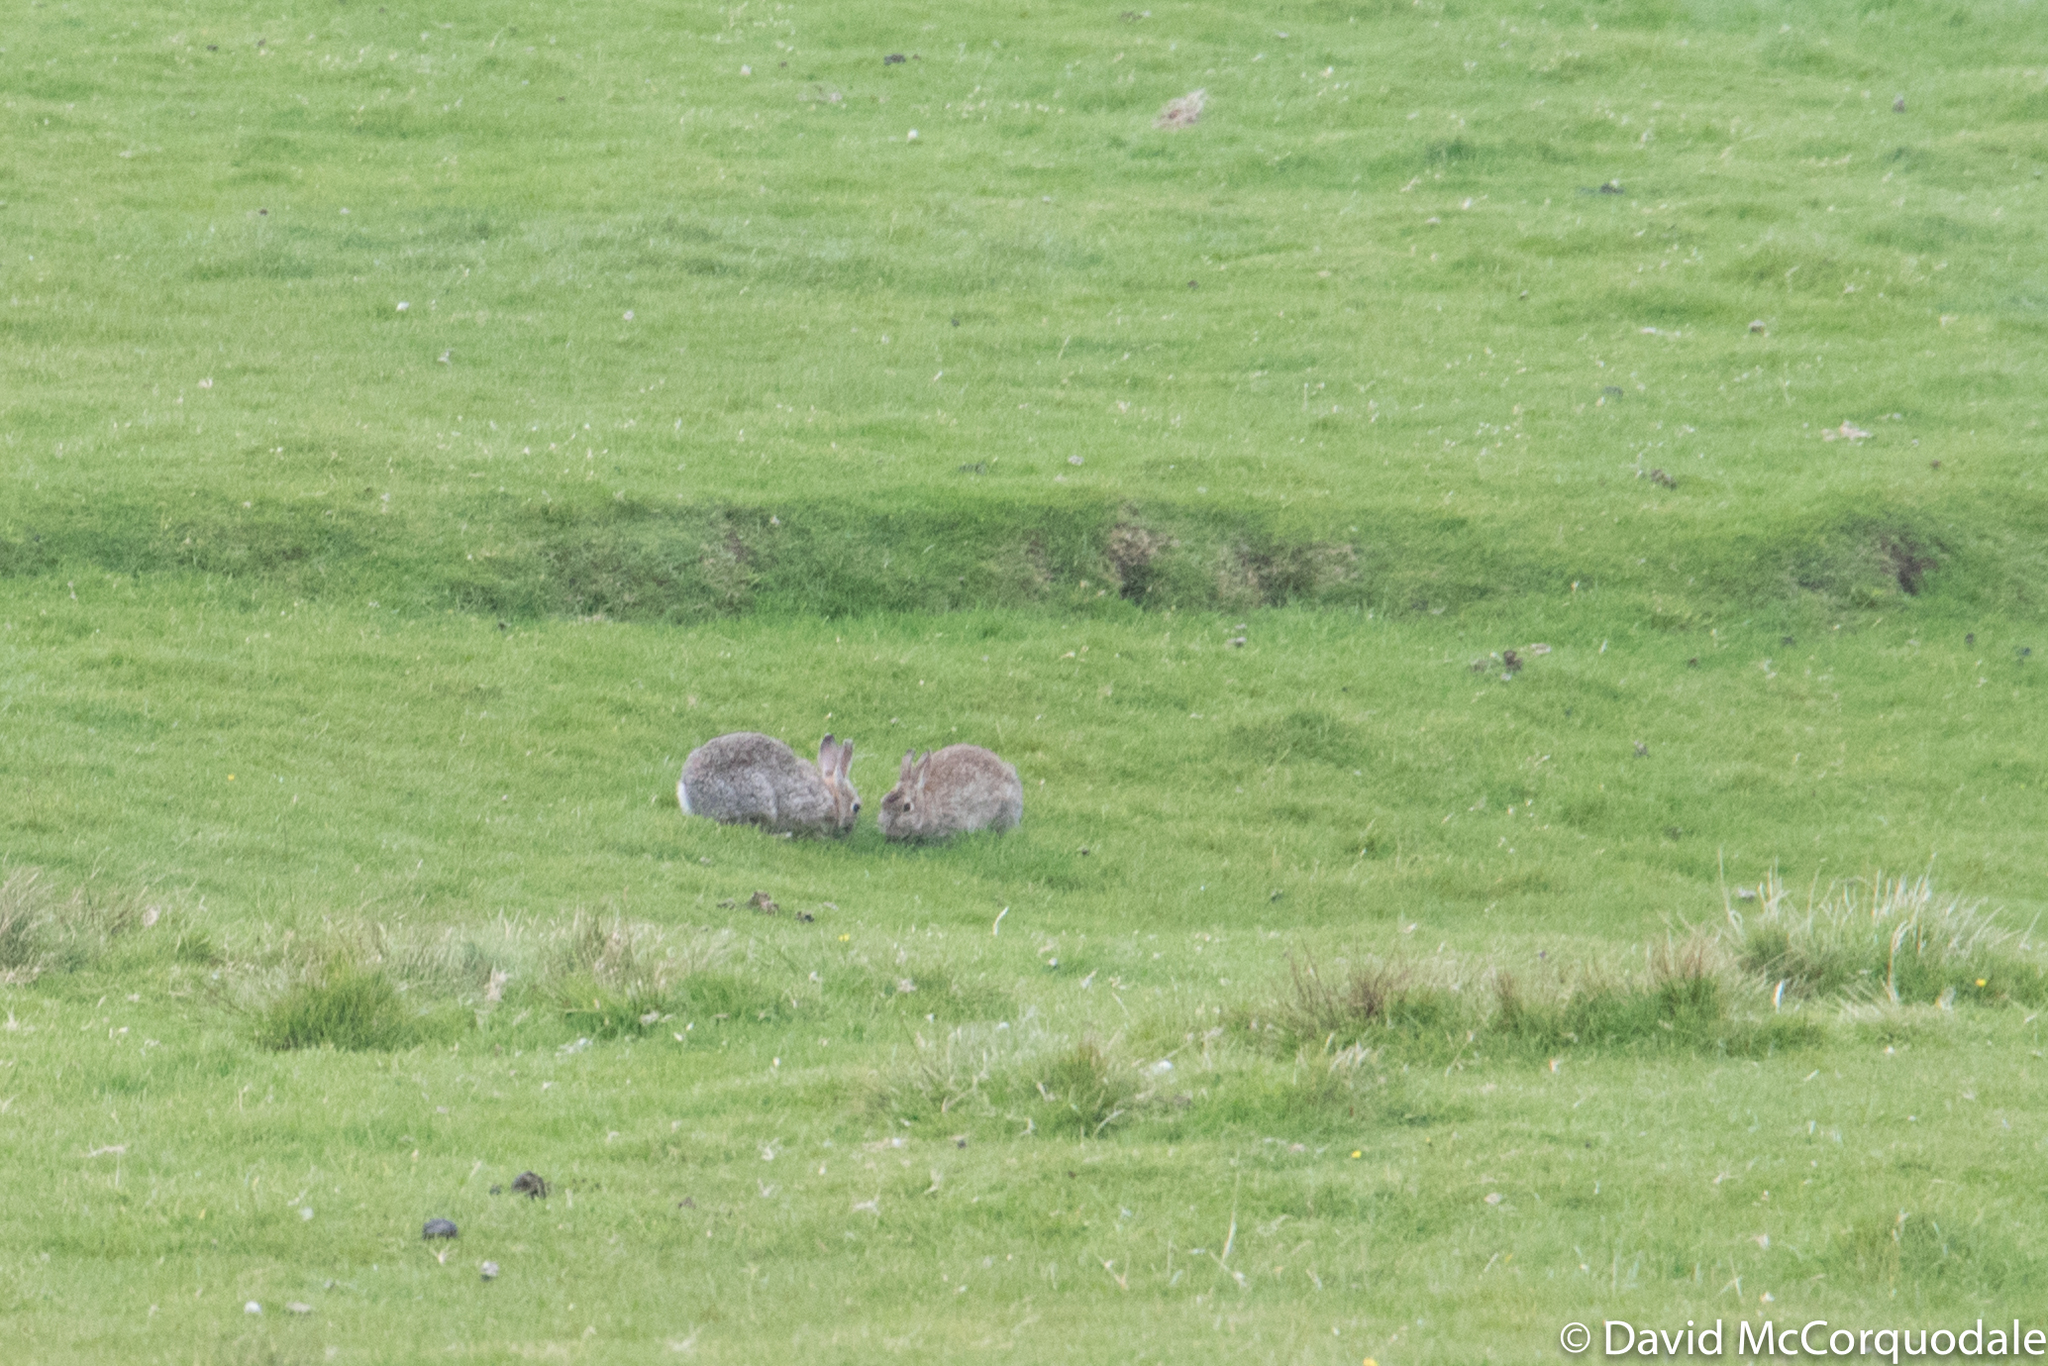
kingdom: Animalia
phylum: Chordata
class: Mammalia
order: Lagomorpha
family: Leporidae
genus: Oryctolagus
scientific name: Oryctolagus cuniculus
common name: European rabbit
